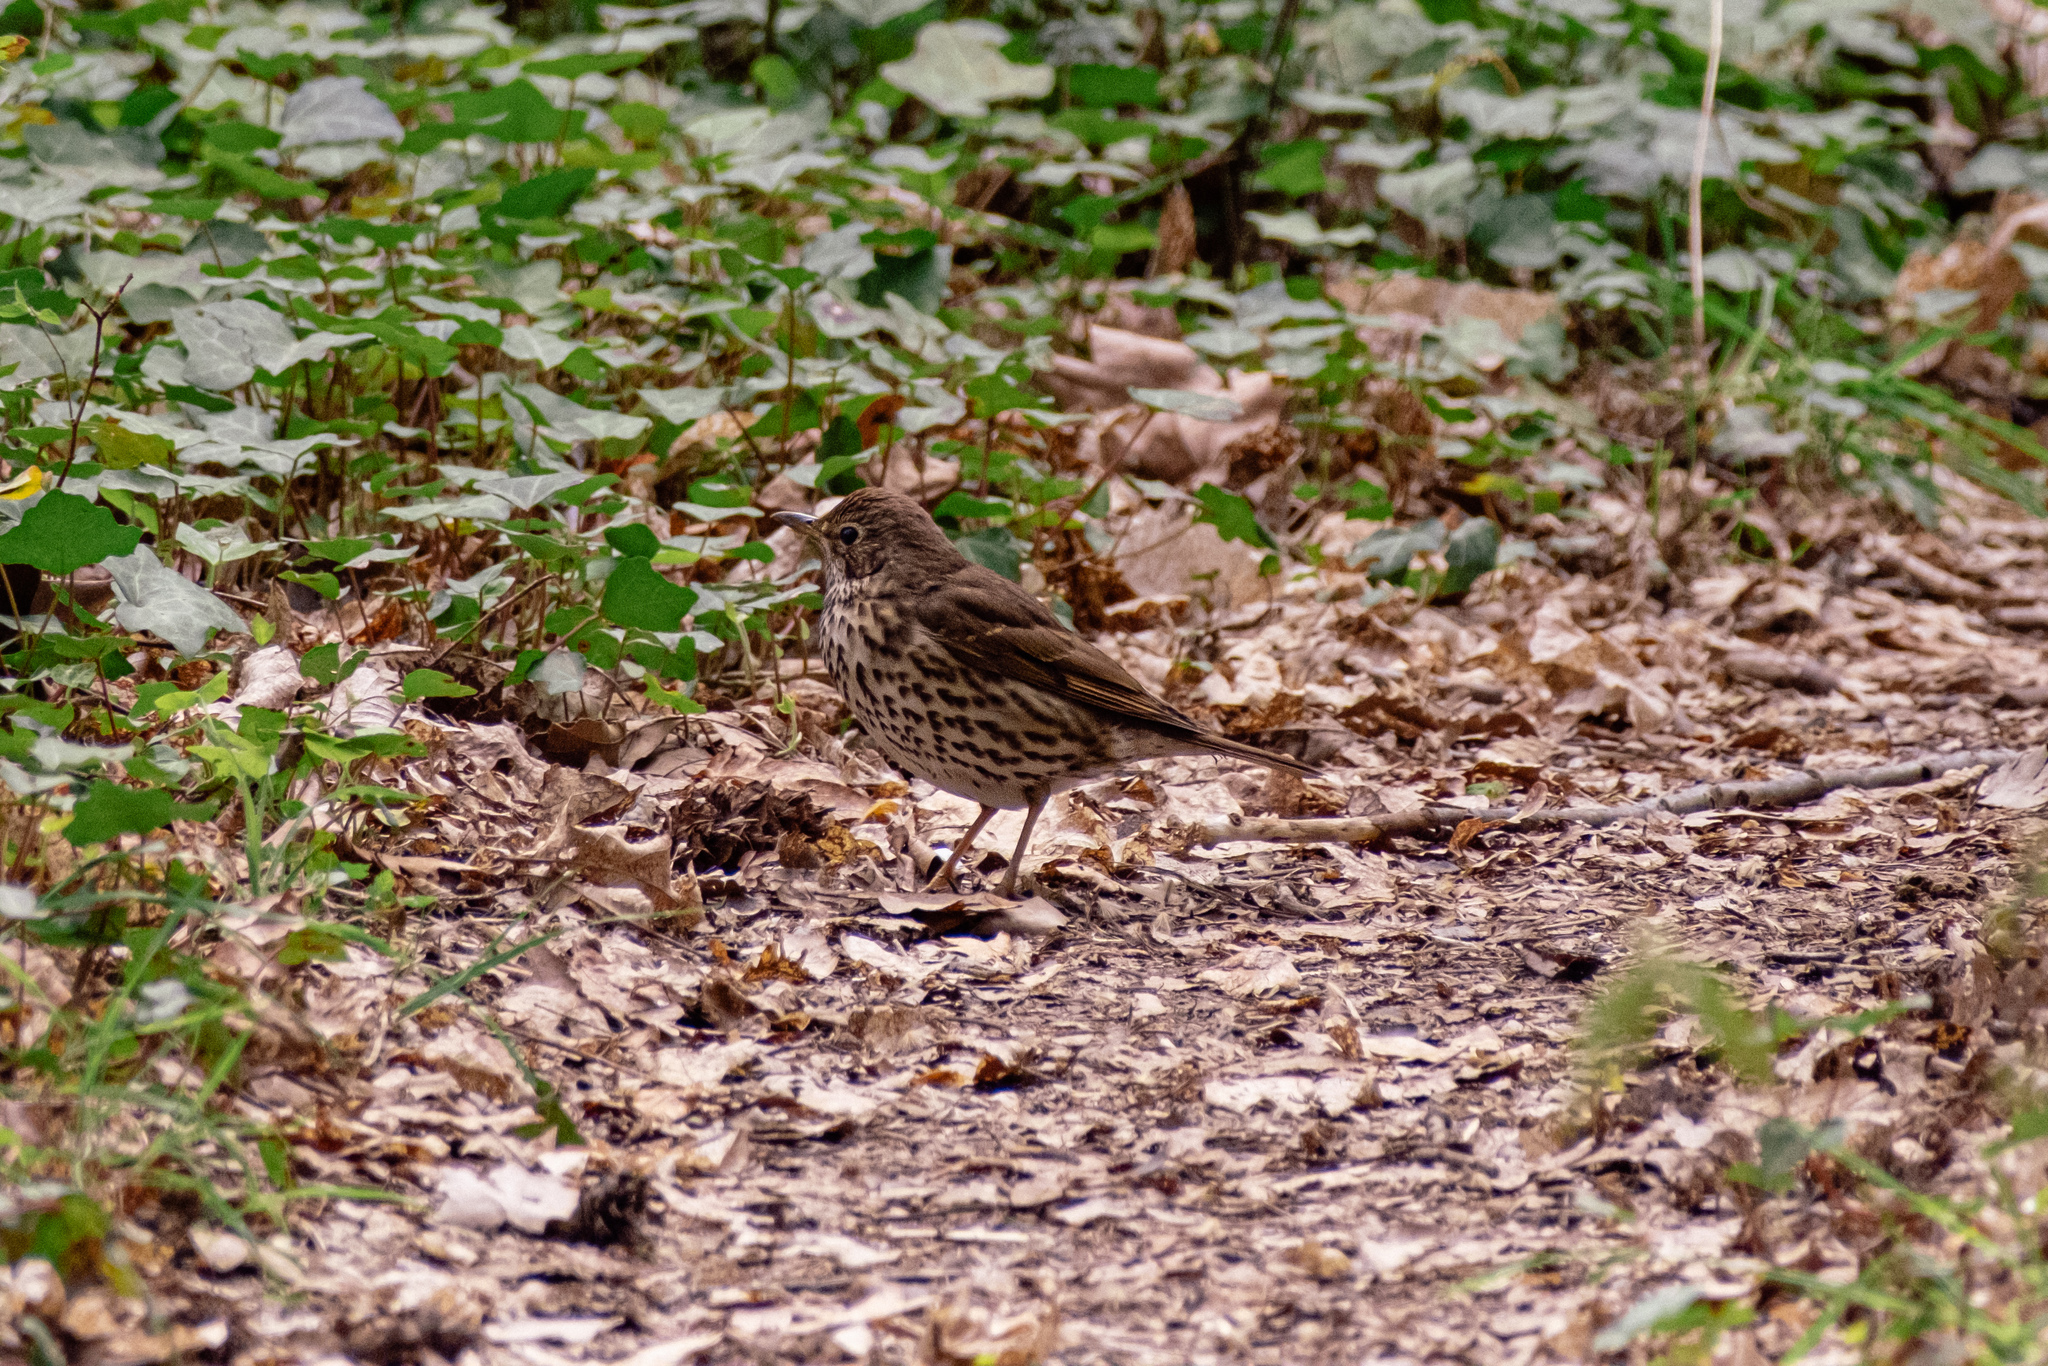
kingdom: Animalia
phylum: Chordata
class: Aves
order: Passeriformes
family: Turdidae
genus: Turdus
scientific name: Turdus philomelos
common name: Song thrush
